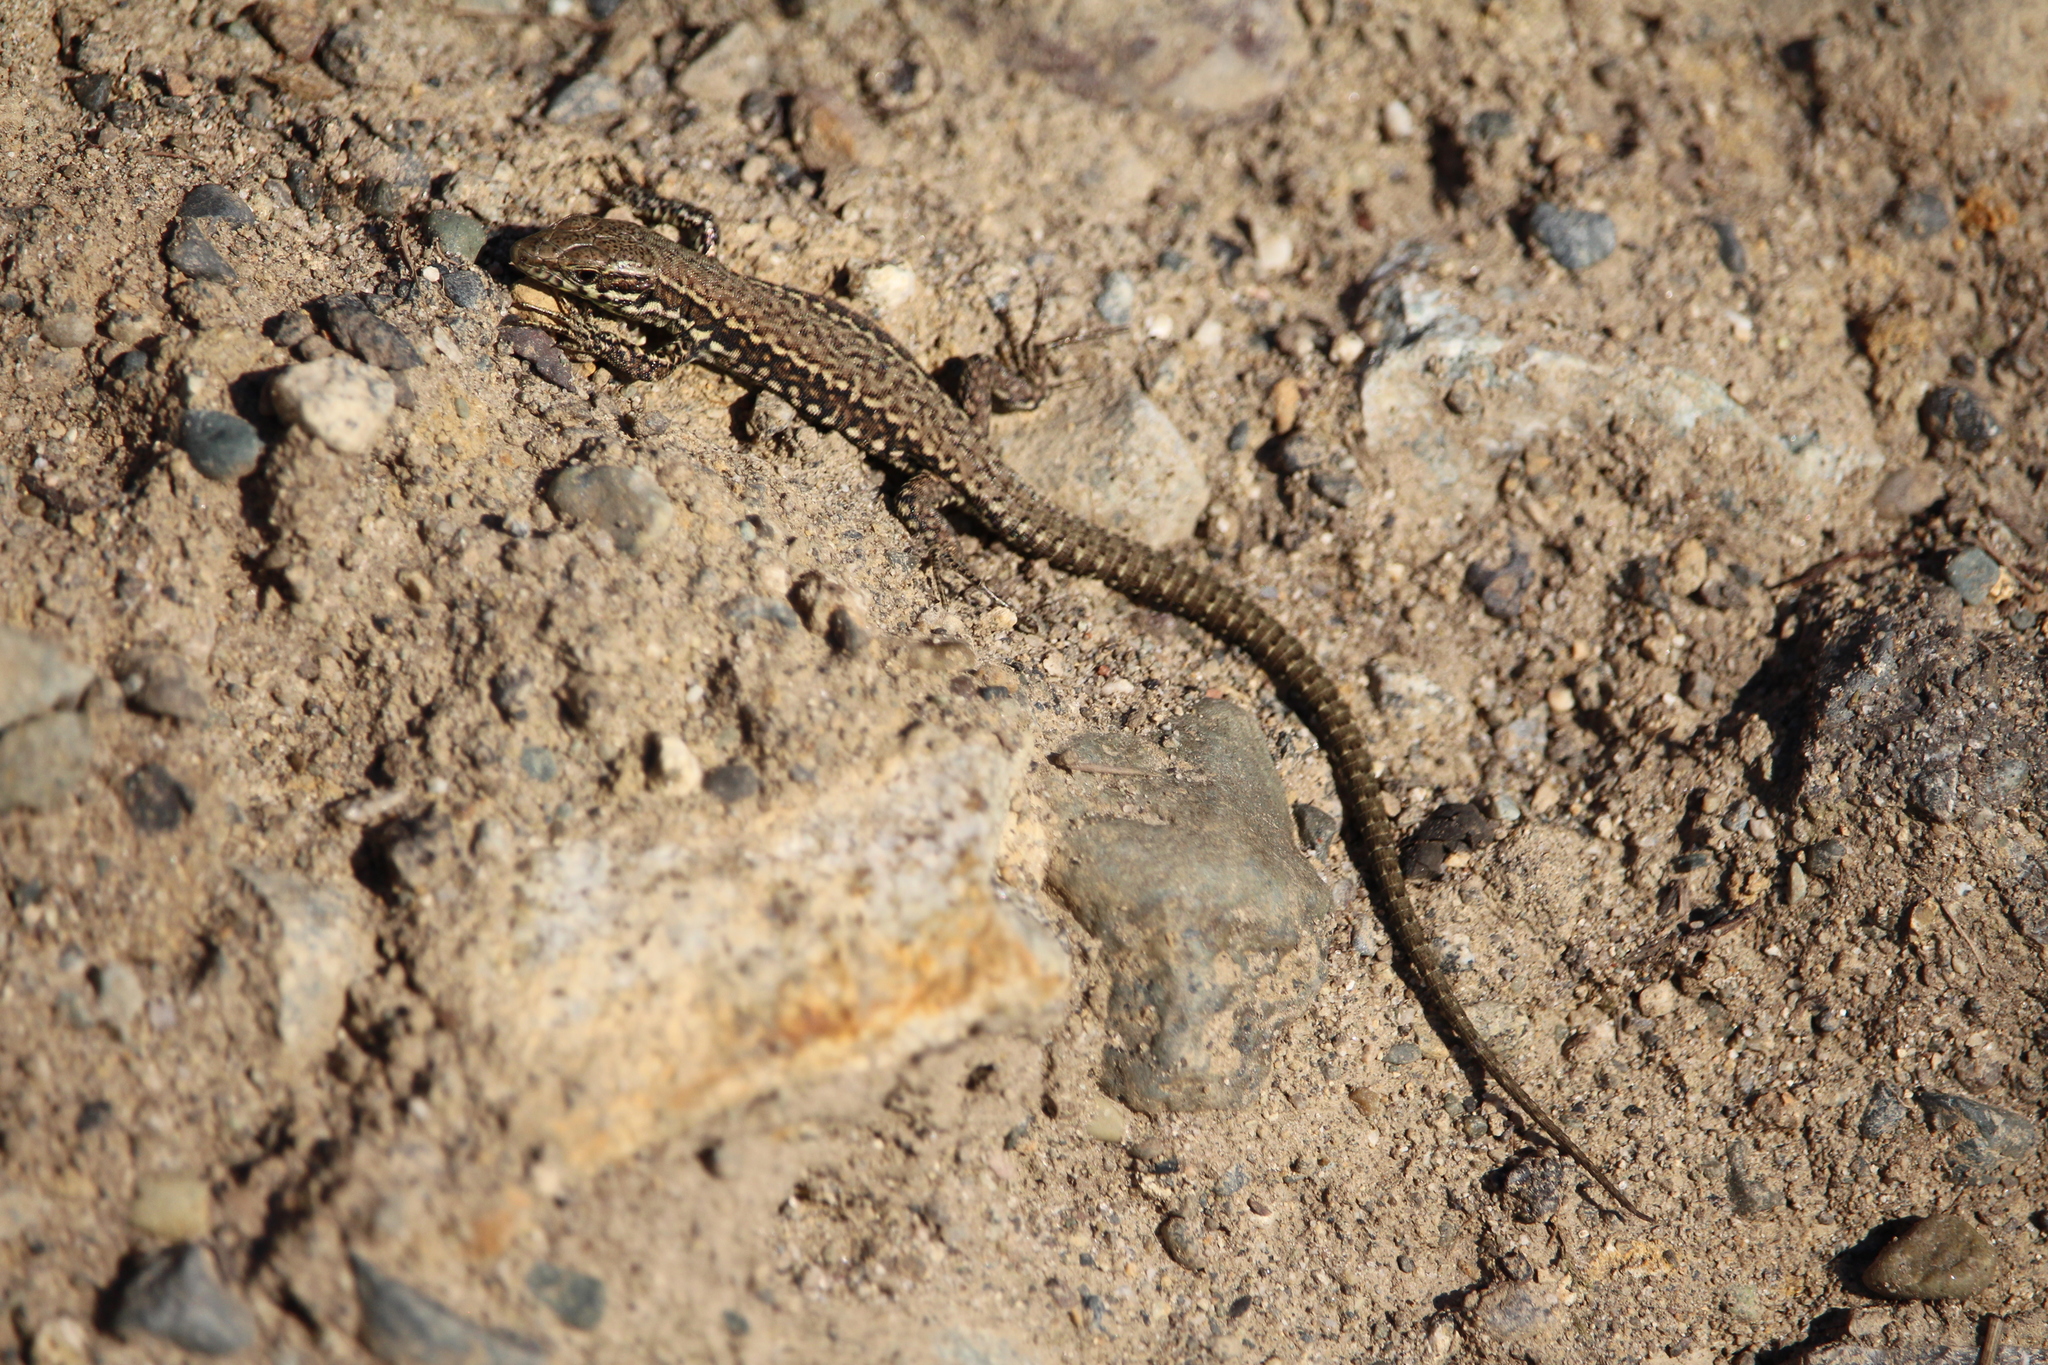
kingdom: Animalia
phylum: Chordata
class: Squamata
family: Lacertidae
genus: Podarcis
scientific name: Podarcis muralis
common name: Common wall lizard
